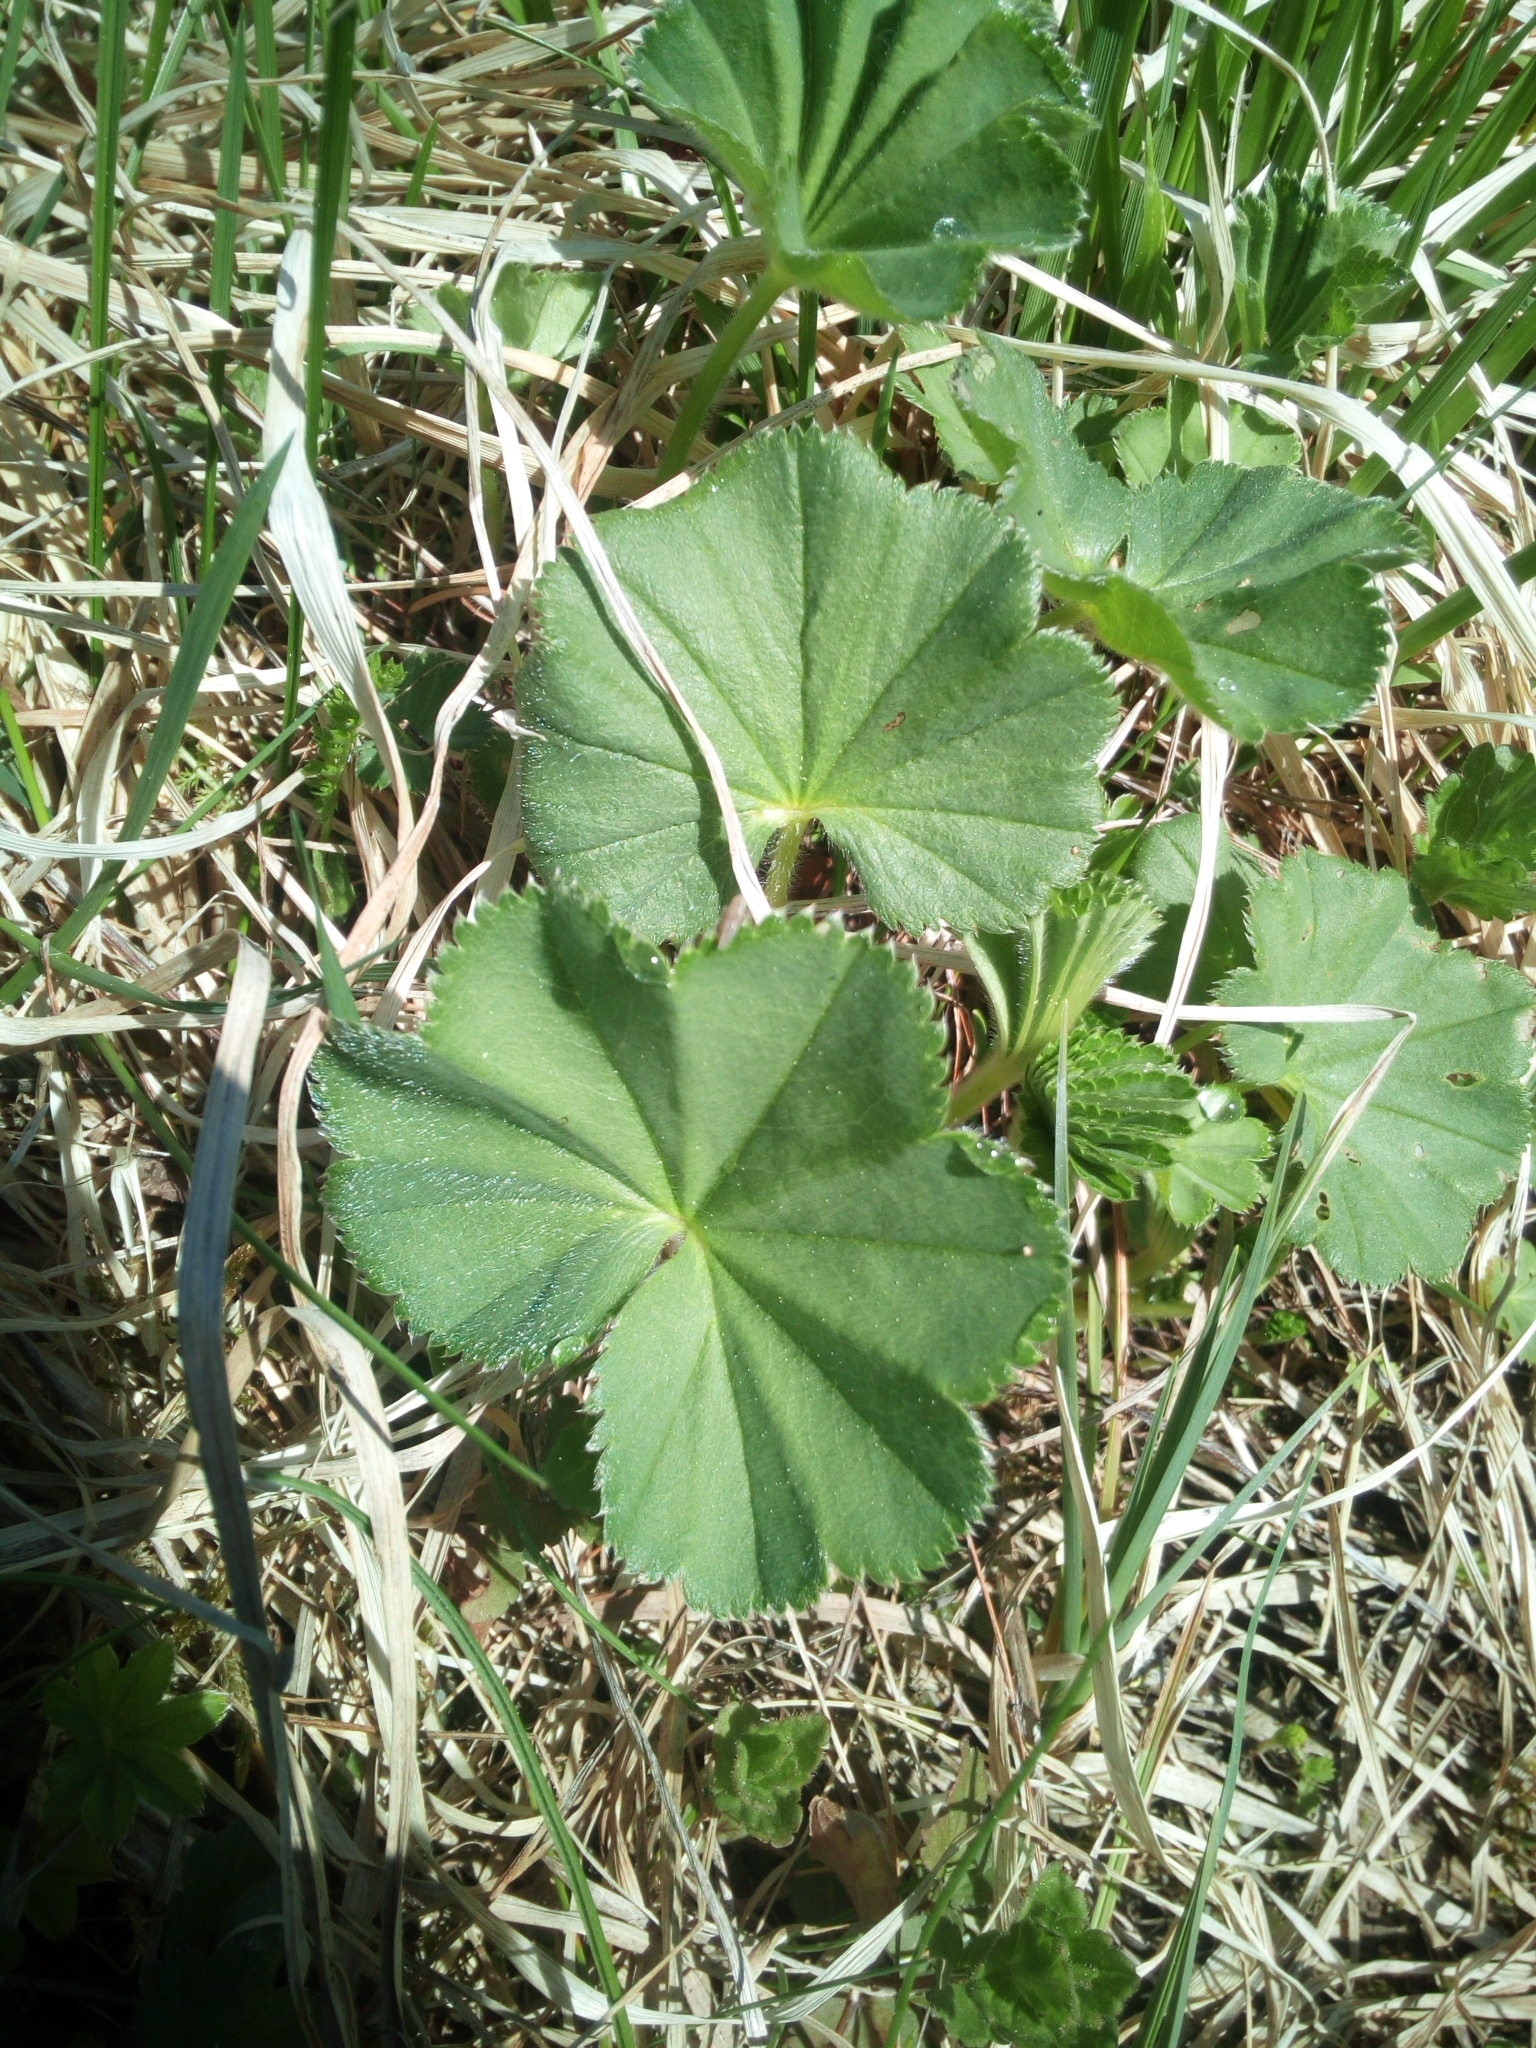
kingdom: Plantae
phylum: Tracheophyta
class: Magnoliopsida
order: Rosales
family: Rosaceae
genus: Alchemilla
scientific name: Alchemilla
